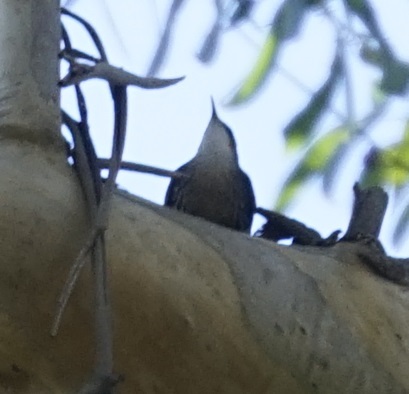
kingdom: Animalia
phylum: Chordata
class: Aves
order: Passeriformes
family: Climacteridae
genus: Cormobates
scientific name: Cormobates leucophaea
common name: White-throated treecreeper
